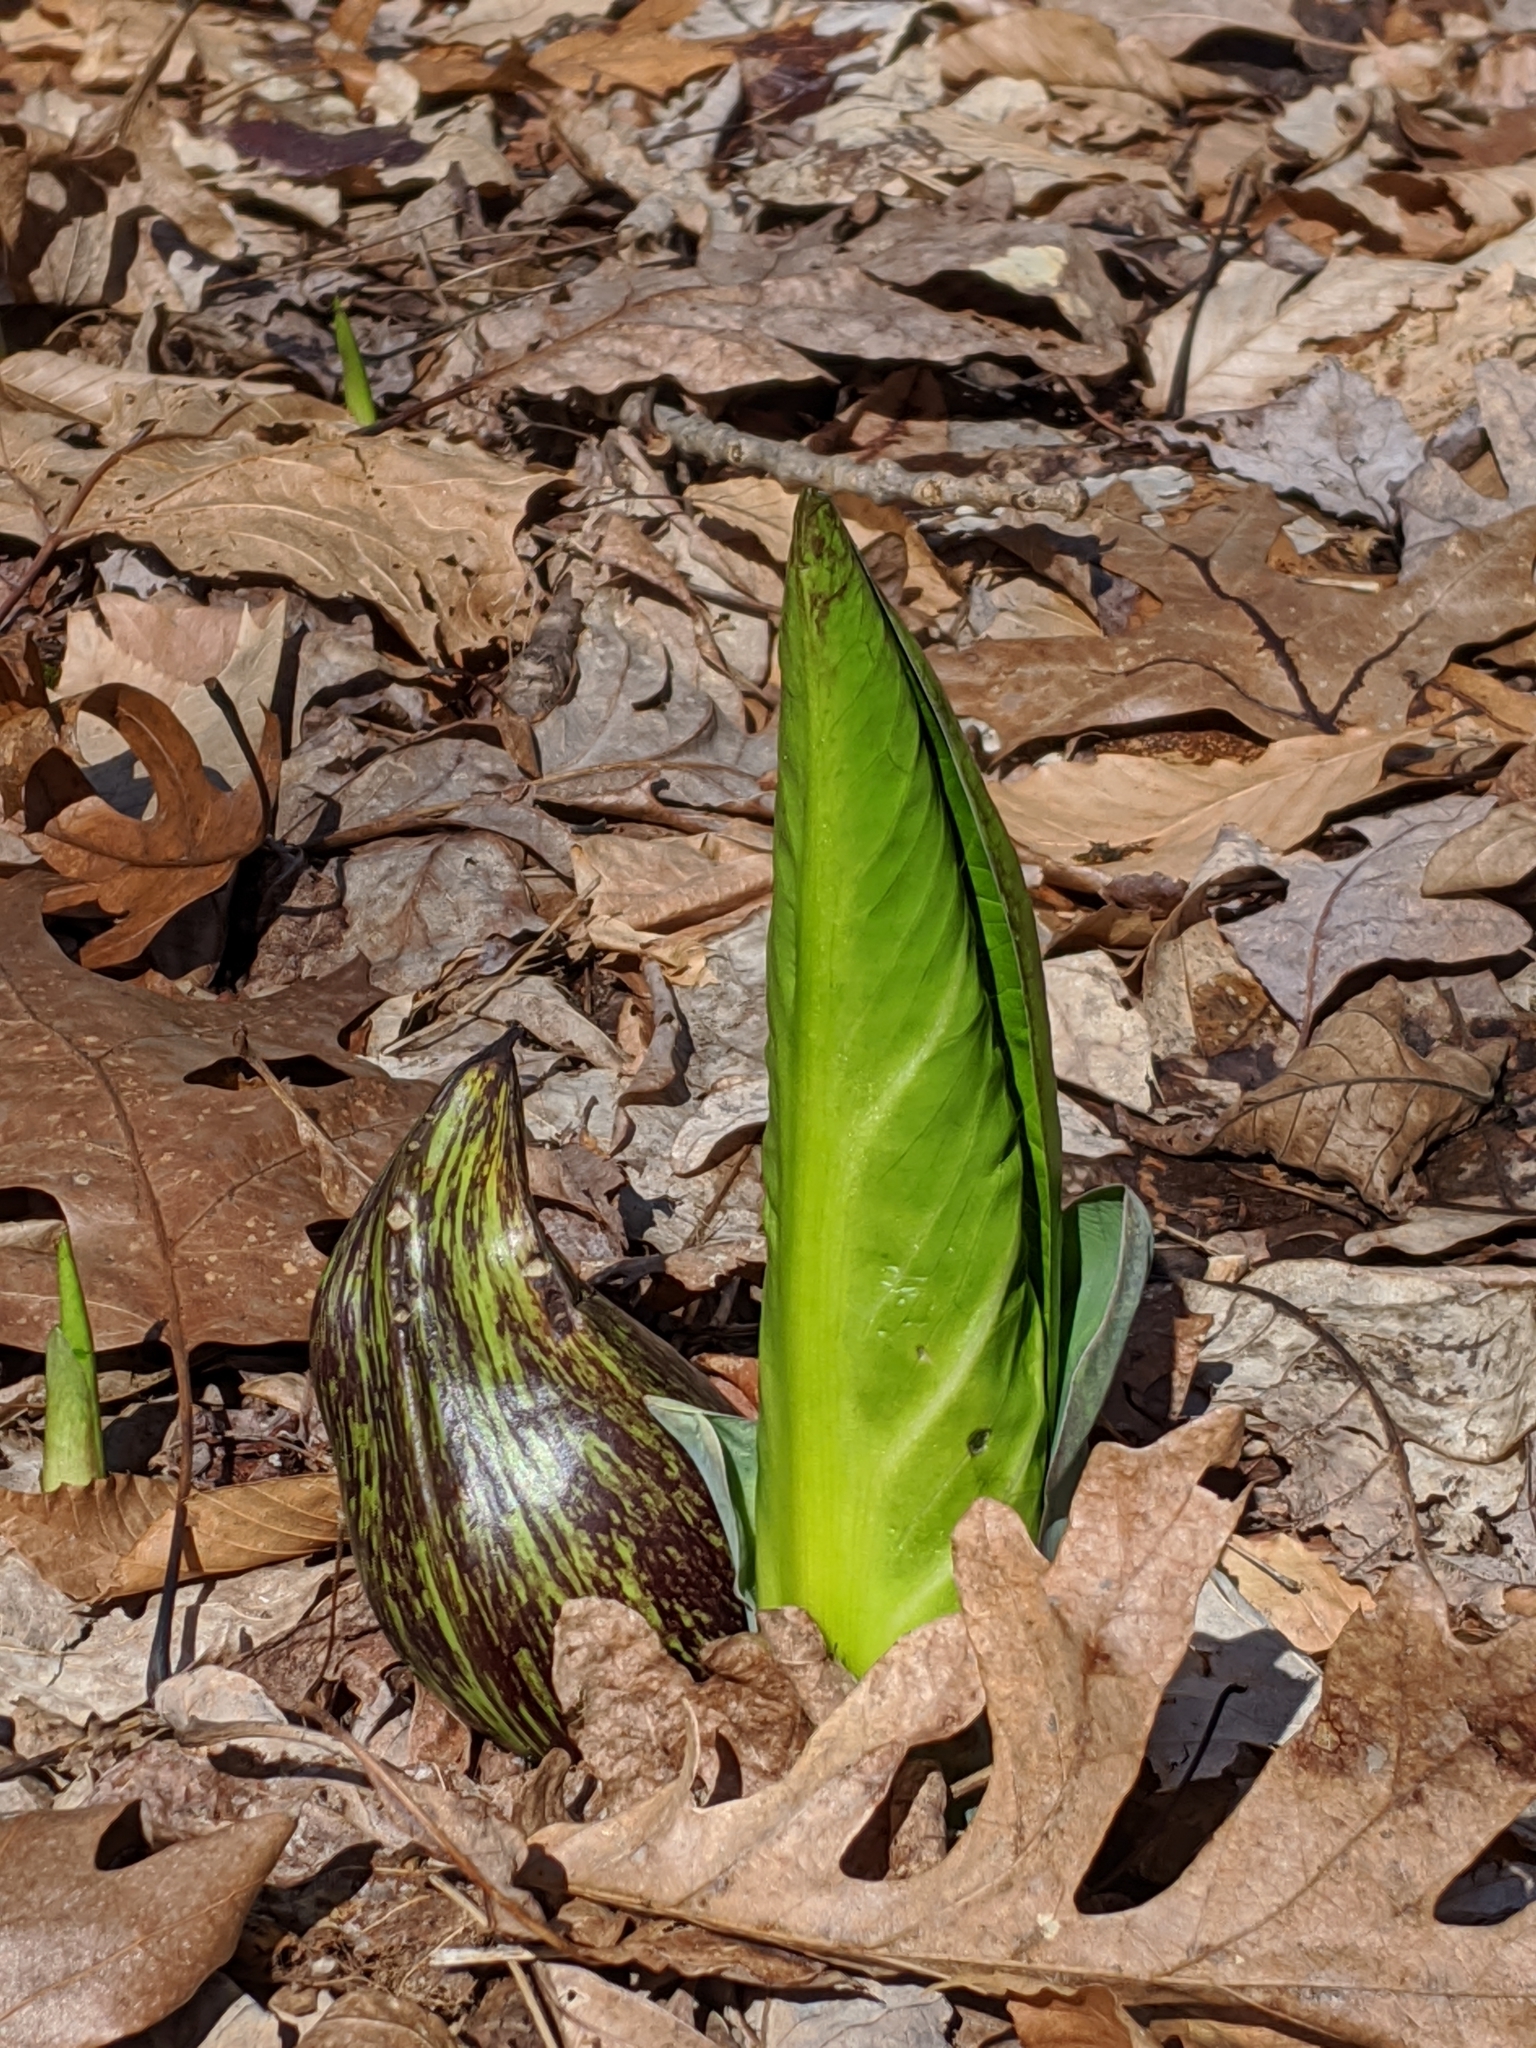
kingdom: Plantae
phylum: Tracheophyta
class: Liliopsida
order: Alismatales
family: Araceae
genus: Symplocarpus
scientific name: Symplocarpus foetidus
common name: Eastern skunk cabbage
